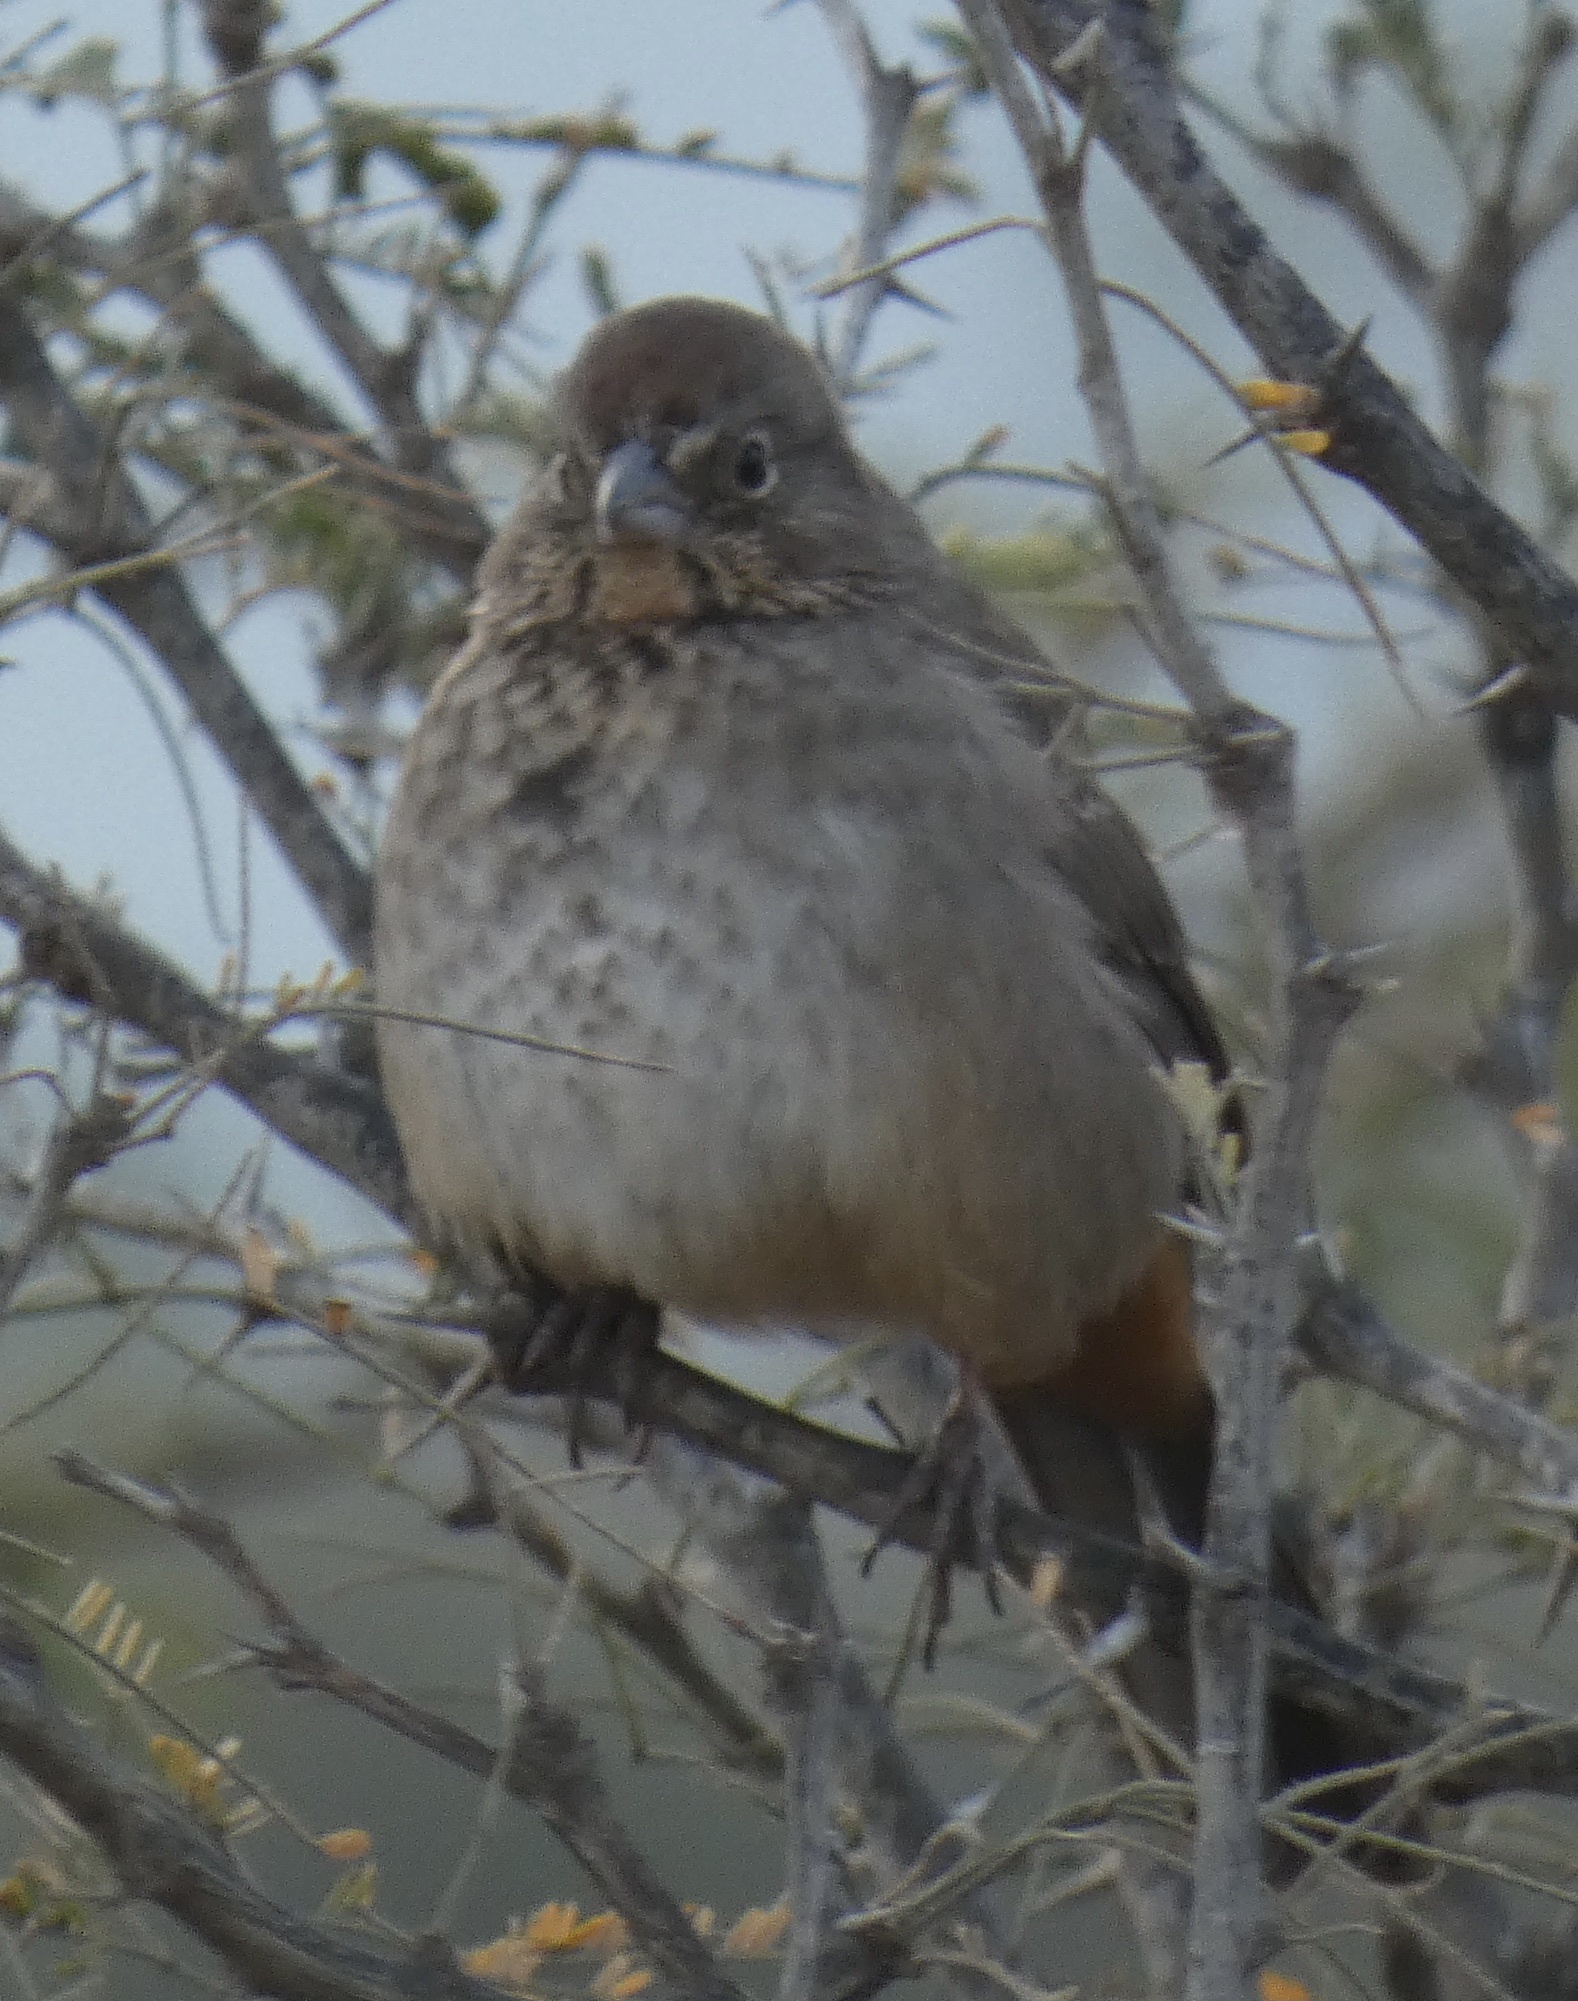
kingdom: Animalia
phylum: Chordata
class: Aves
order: Passeriformes
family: Passerellidae
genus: Melozone
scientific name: Melozone fusca
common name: Canyon towhee
